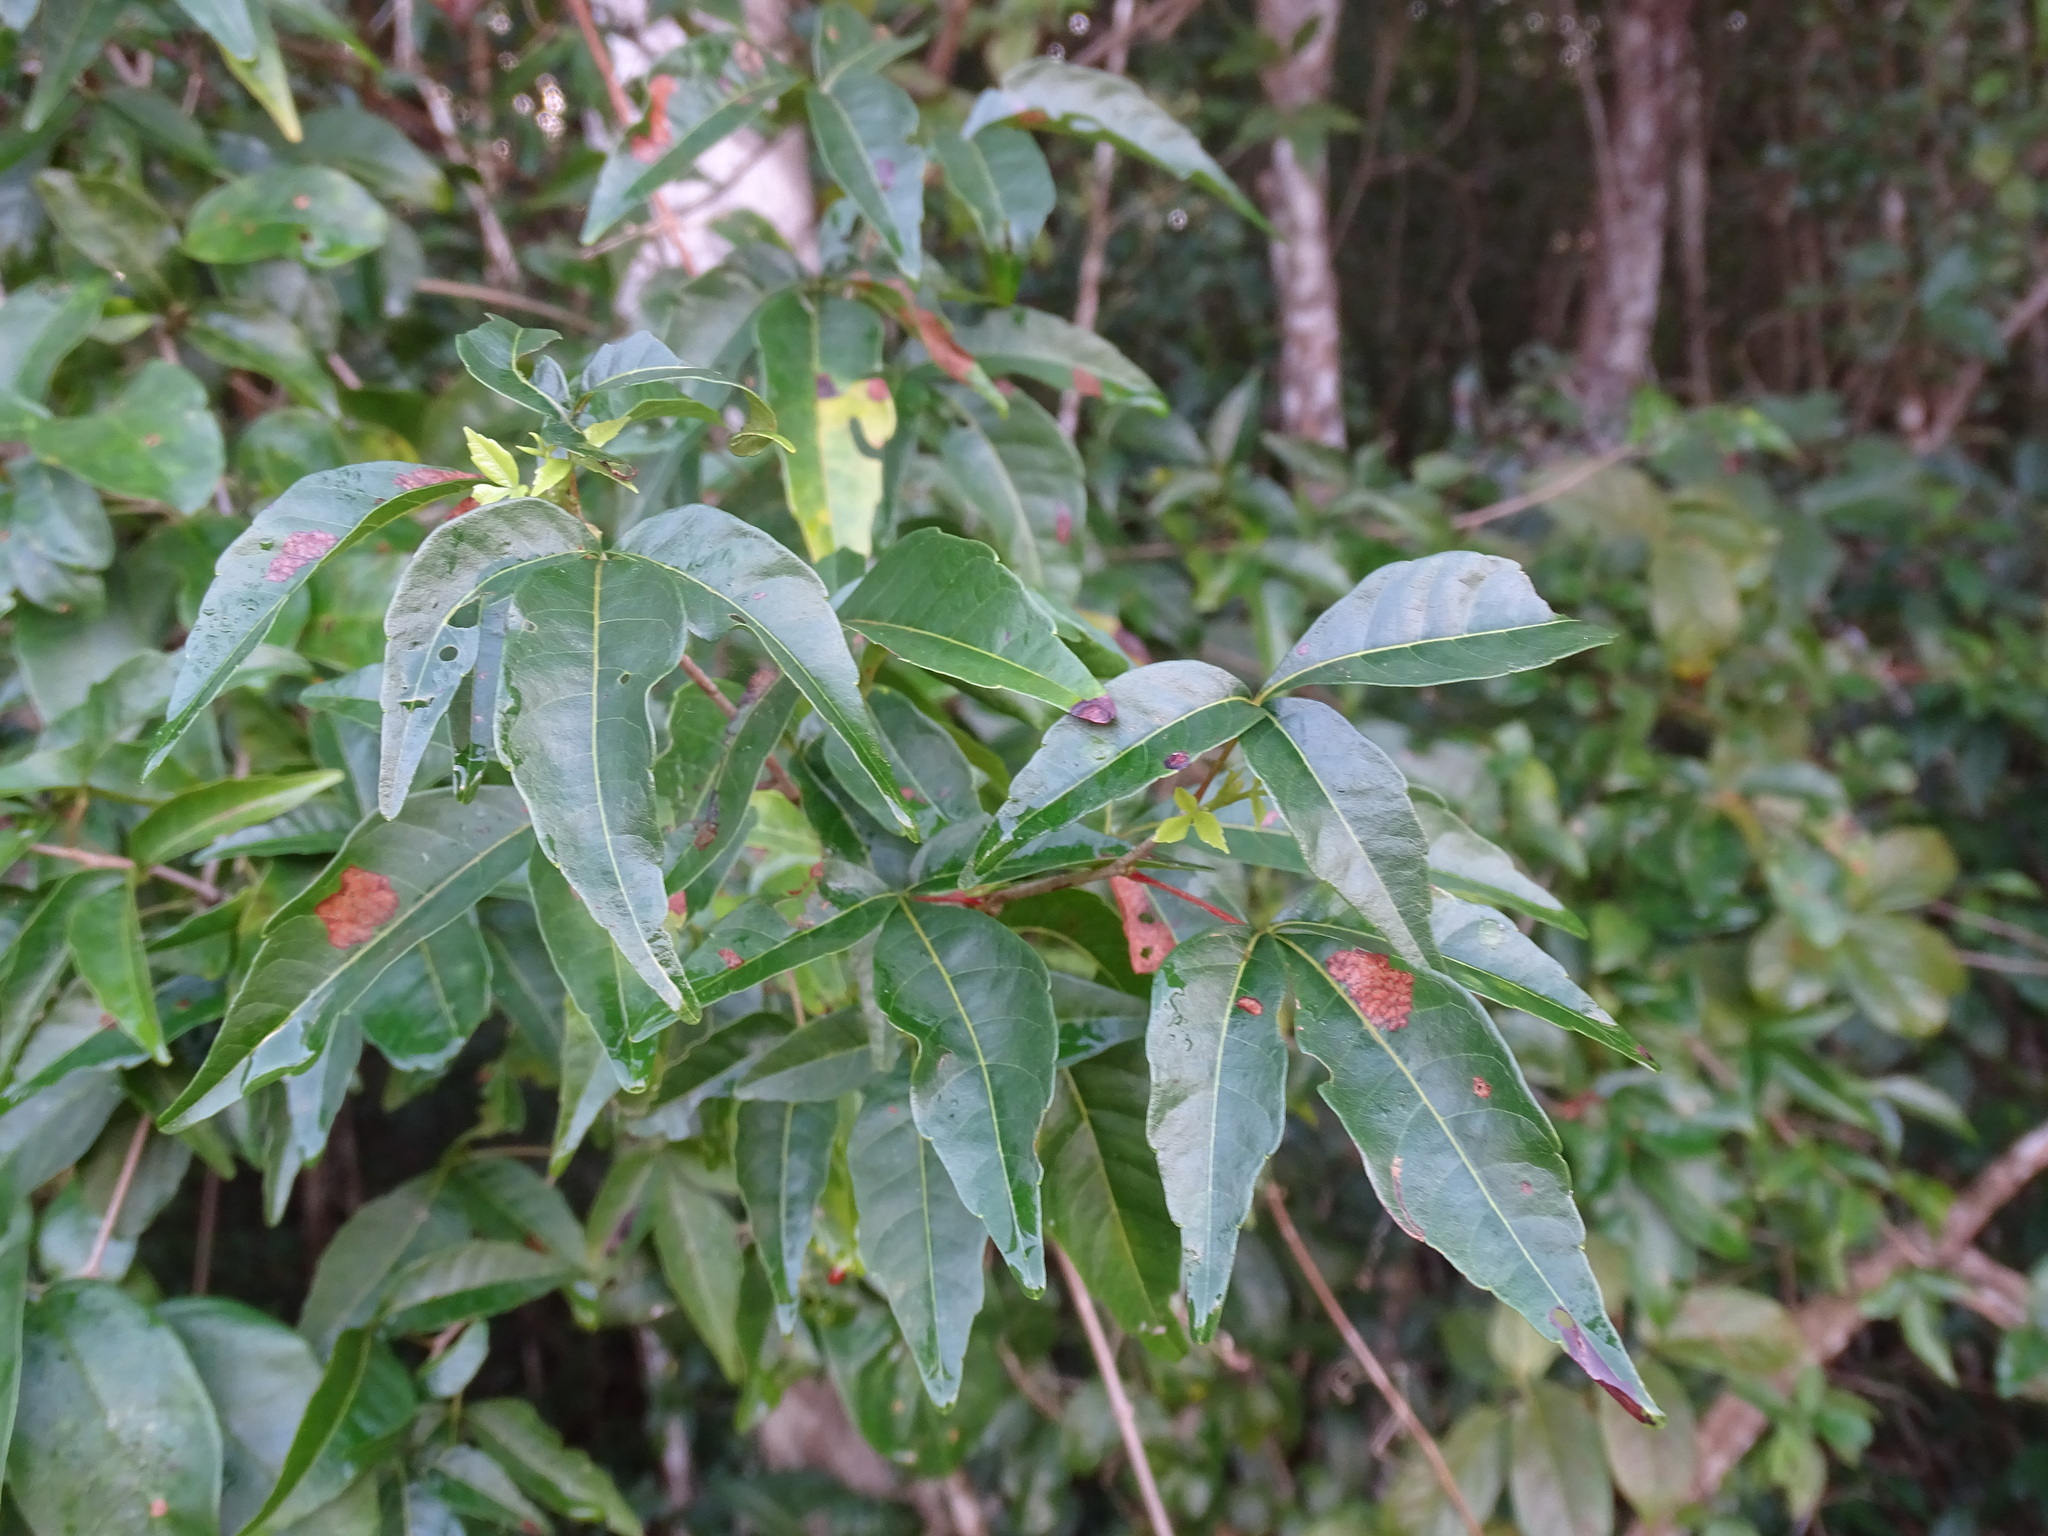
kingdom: Plantae
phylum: Tracheophyta
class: Magnoliopsida
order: Sapindales
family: Sapindaceae
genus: Thouinia
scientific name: Thouinia paucidentata
